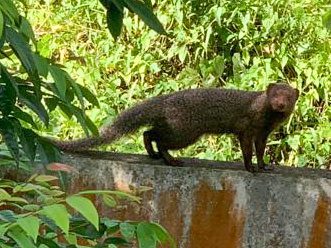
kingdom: Animalia
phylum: Chordata
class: Mammalia
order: Carnivora
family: Herpestidae
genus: Herpestes
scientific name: Herpestes smithii
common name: Ruddy mongoose
